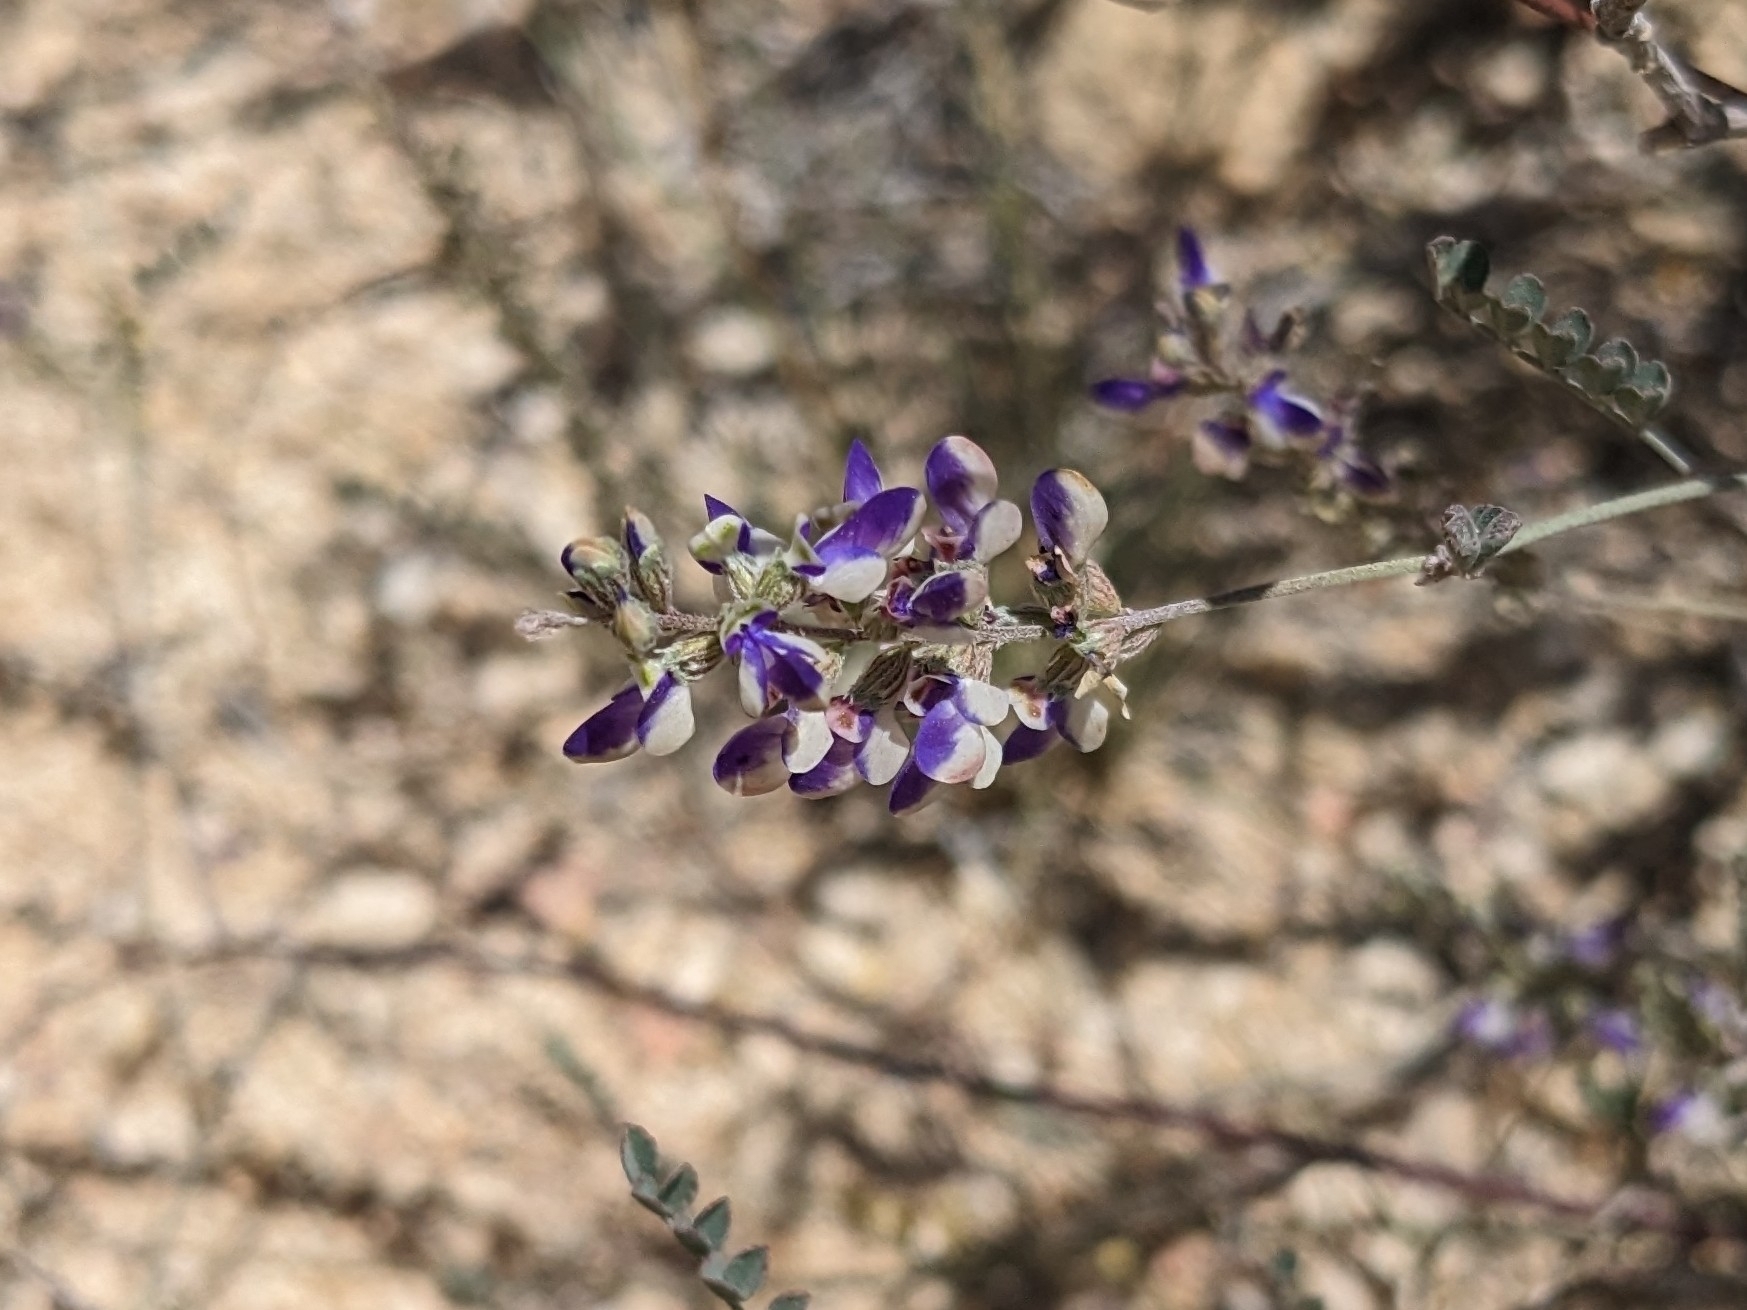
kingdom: Plantae
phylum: Tracheophyta
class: Magnoliopsida
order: Fabales
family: Fabaceae
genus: Marina
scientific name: Marina parryi
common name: Parry's marina
